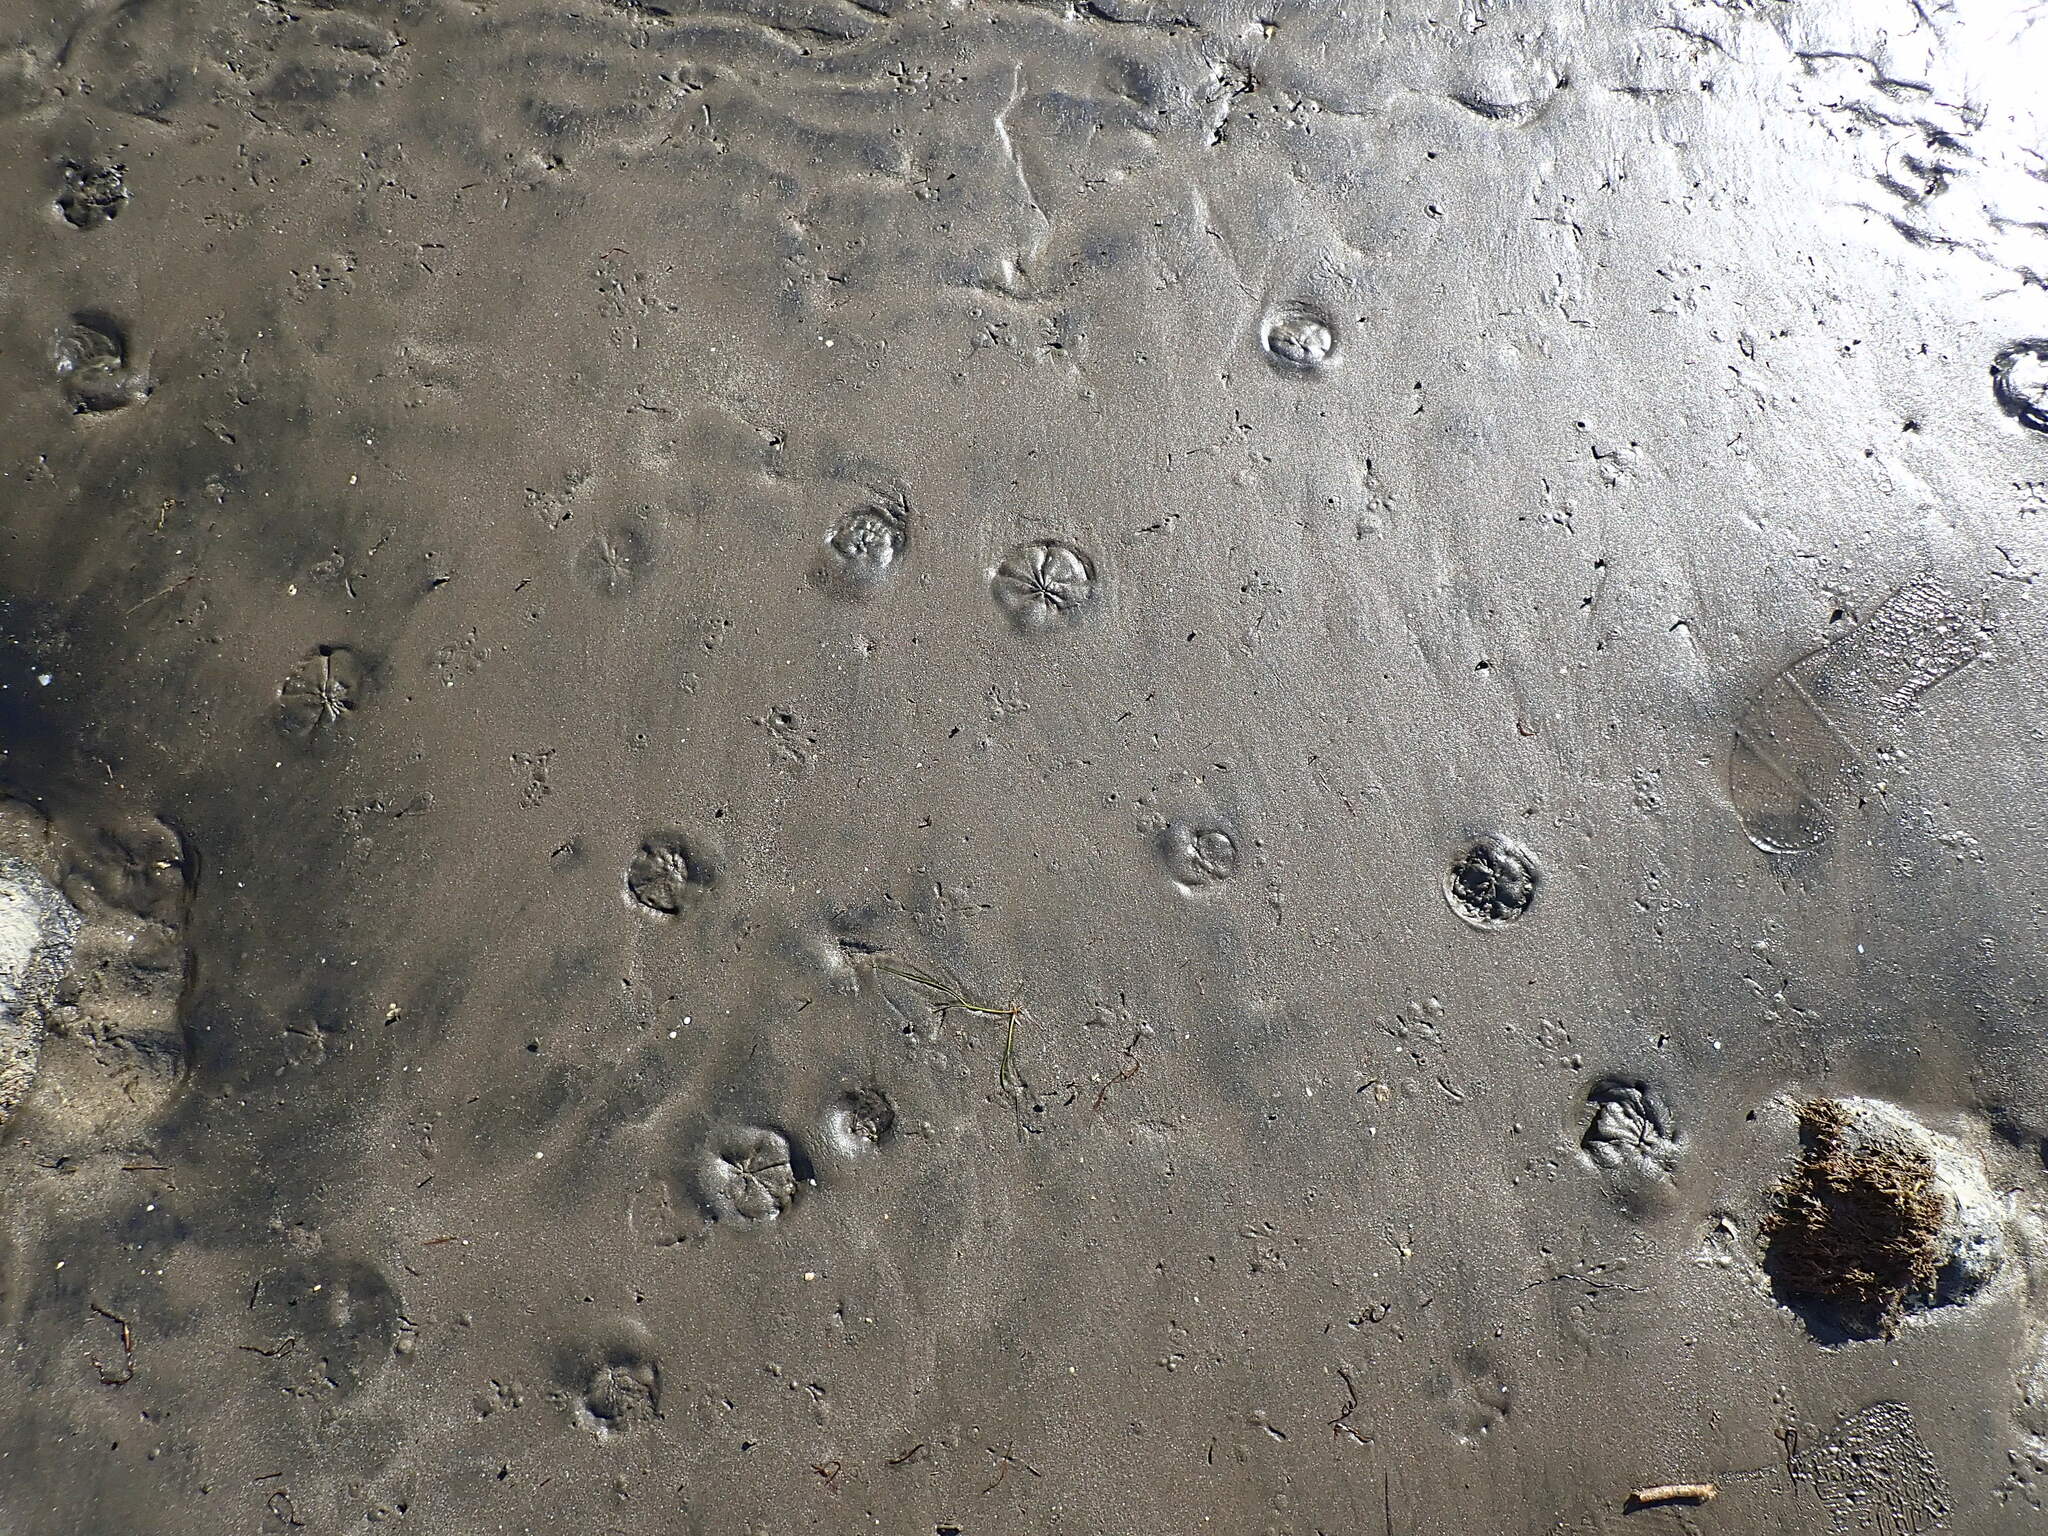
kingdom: Animalia
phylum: Echinodermata
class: Echinoidea
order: Clypeasteroida
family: Clypeasteridae
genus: Fellaster
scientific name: Fellaster zelandiae
